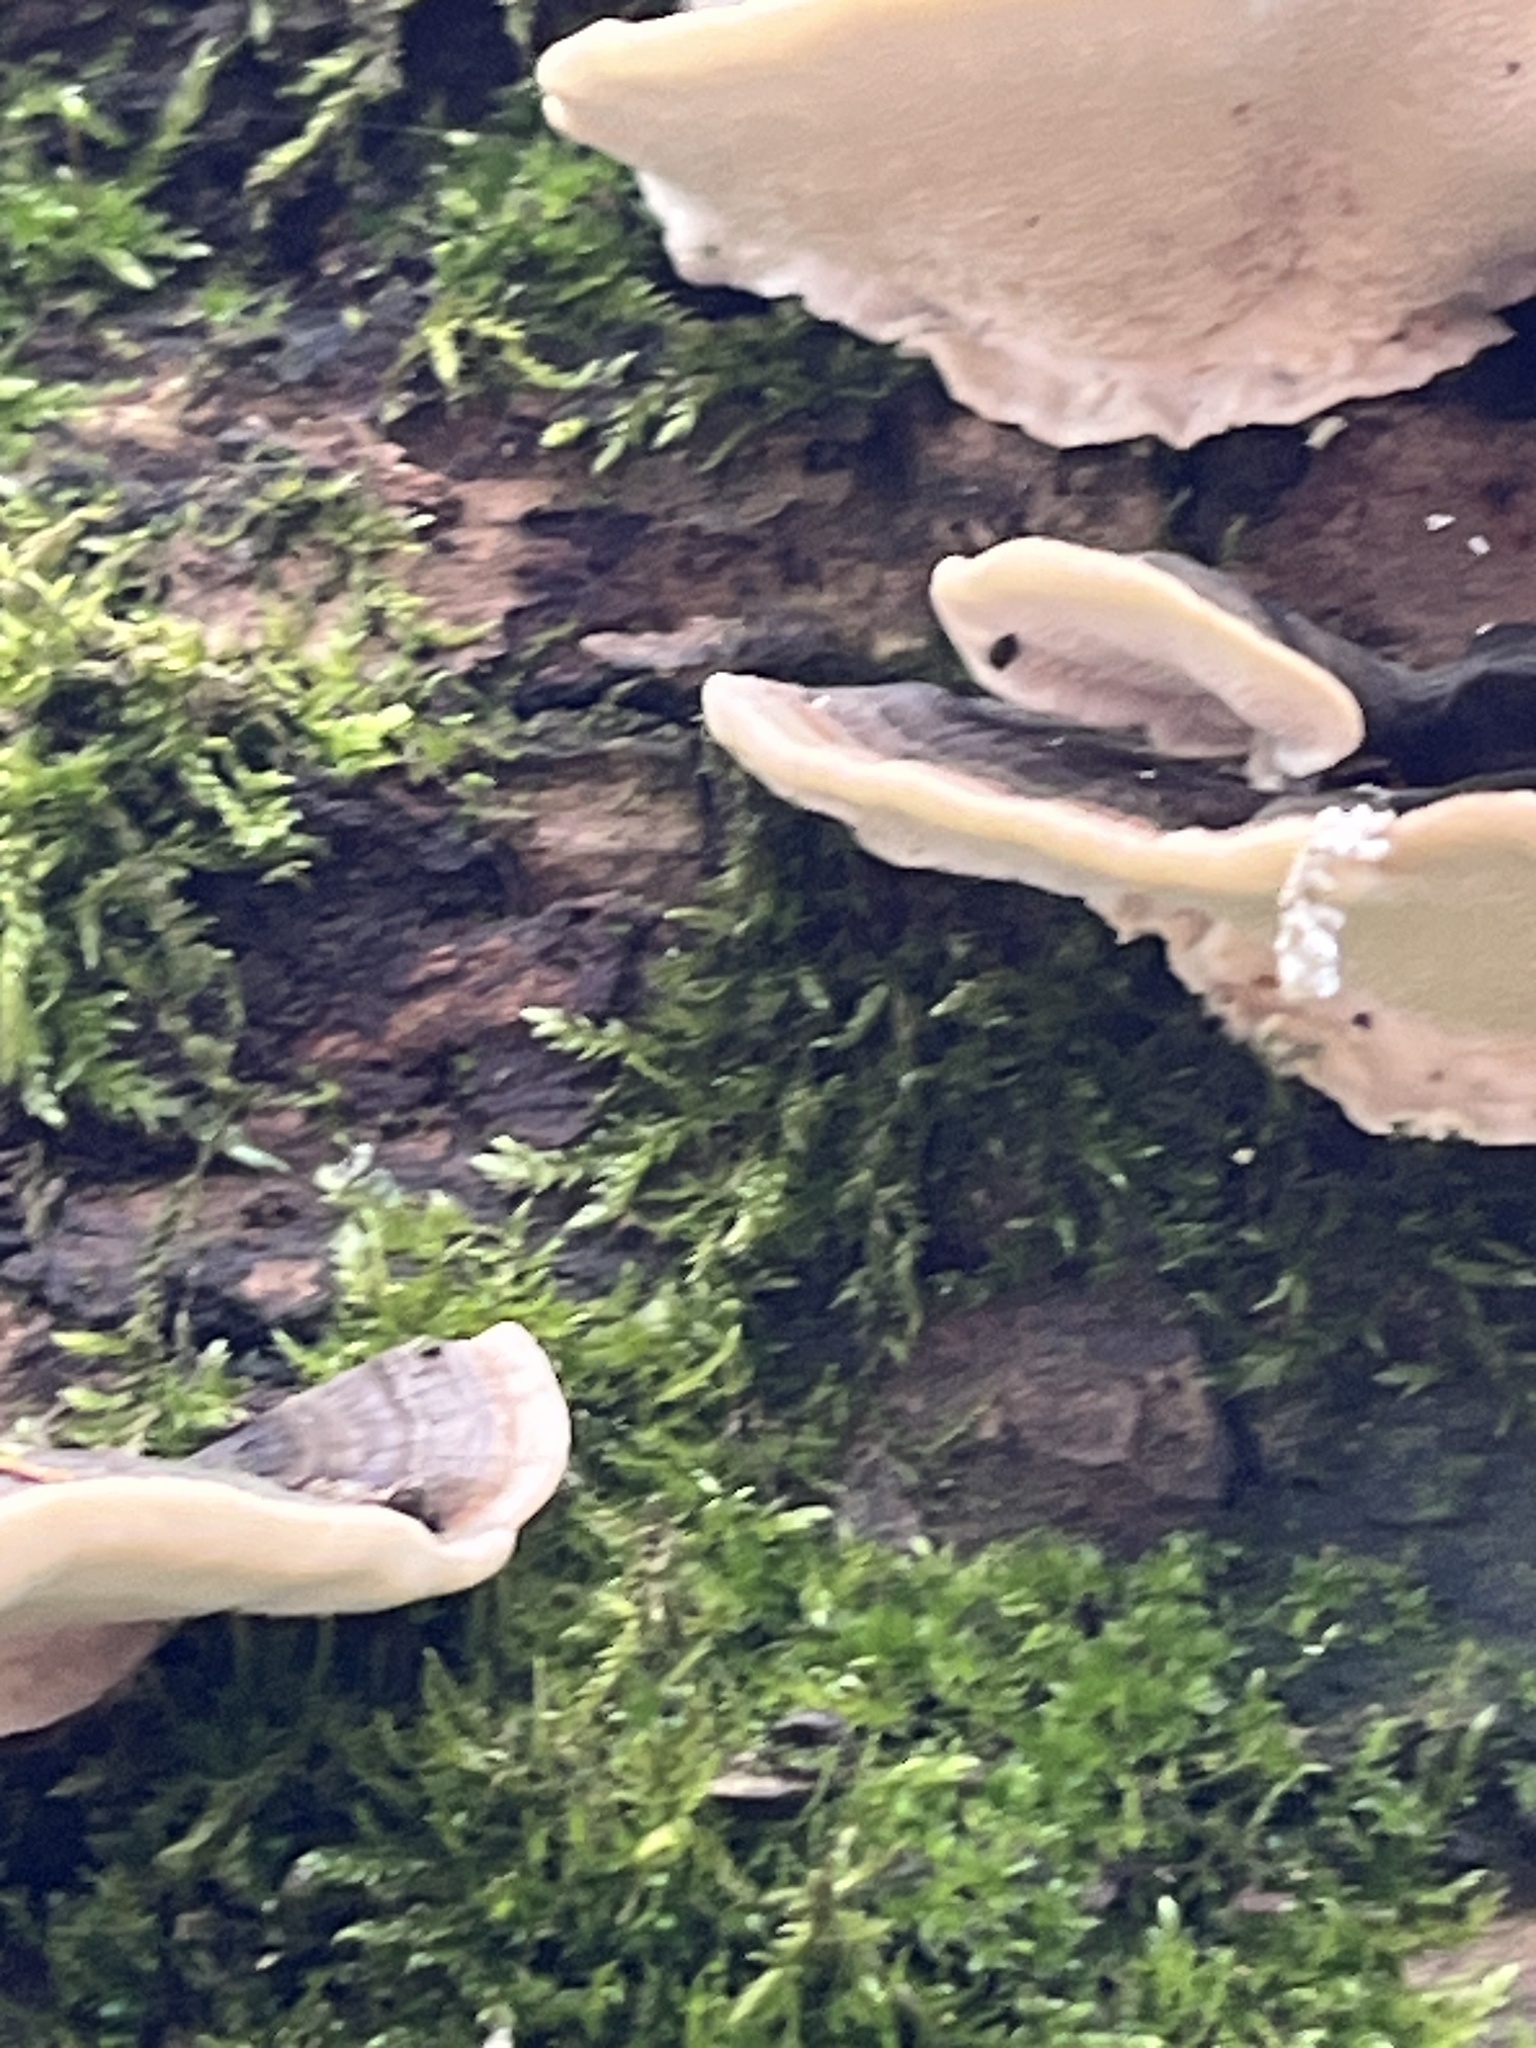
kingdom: Fungi
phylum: Basidiomycota
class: Agaricomycetes
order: Polyporales
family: Polyporaceae
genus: Trametes
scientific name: Trametes versicolor
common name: Turkeytail
